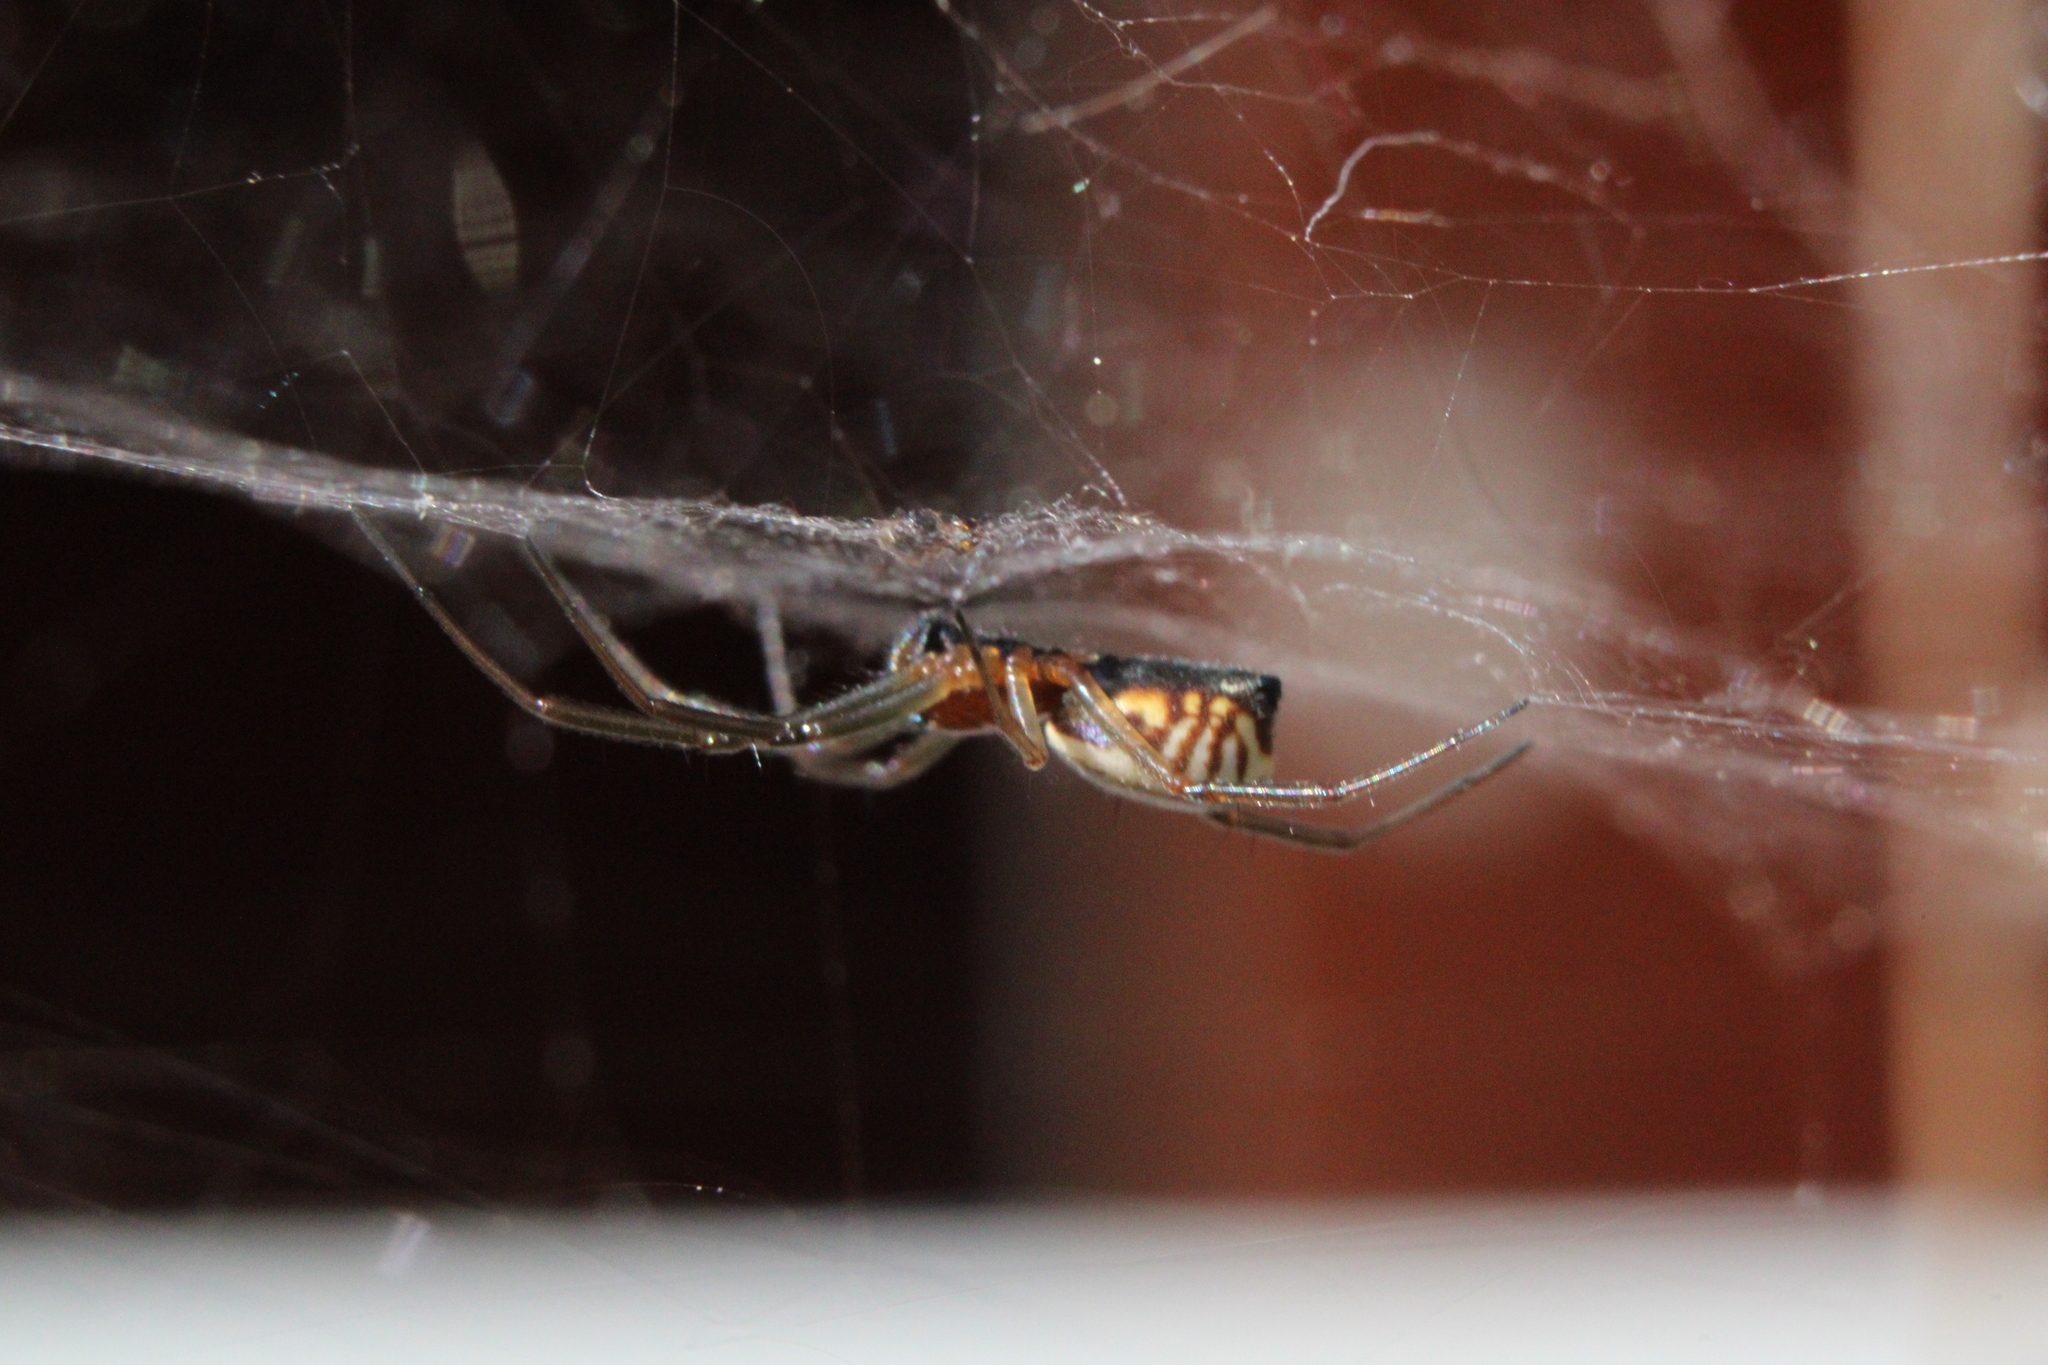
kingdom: Animalia
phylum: Arthropoda
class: Arachnida
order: Araneae
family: Linyphiidae
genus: Frontinella
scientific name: Frontinella pyramitela
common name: Bowl-and-doily spider
